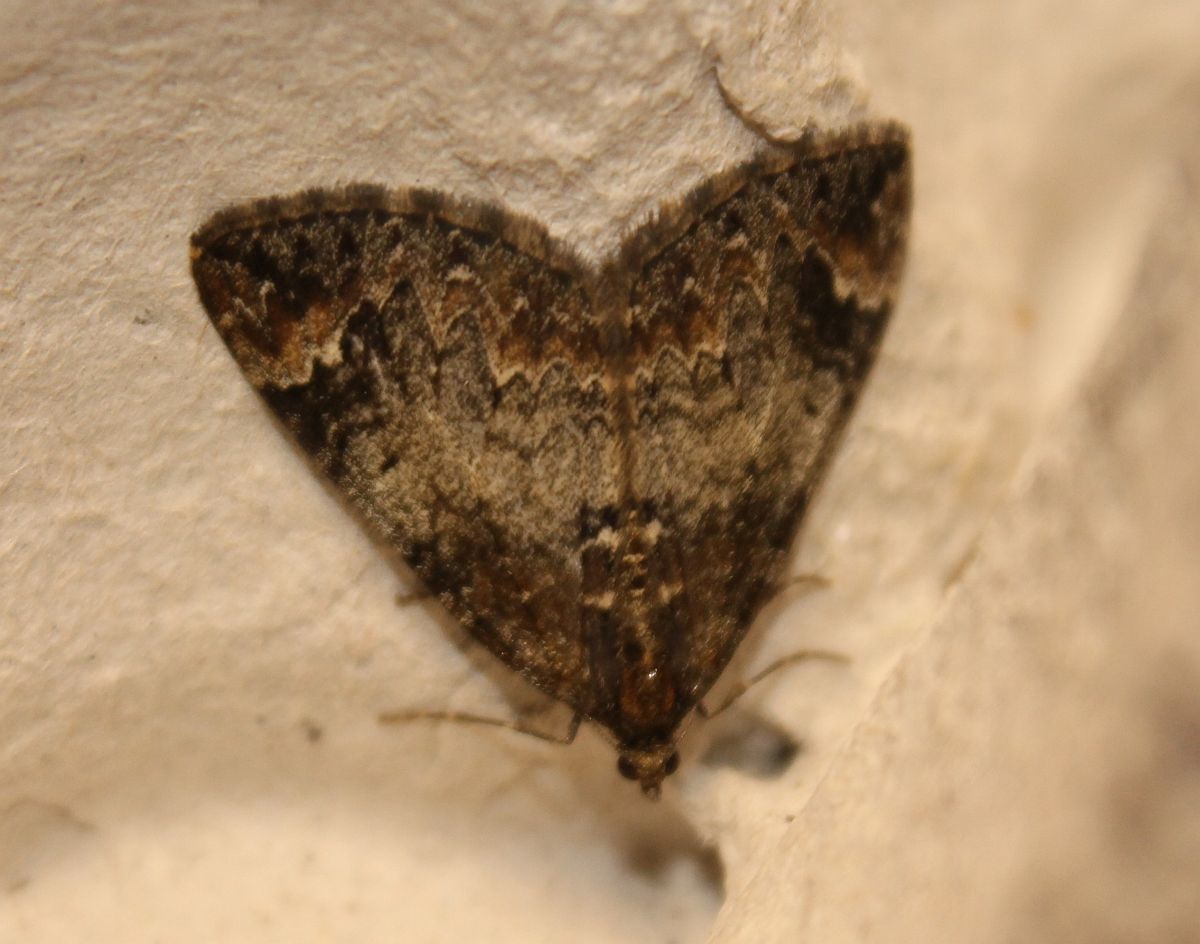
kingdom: Animalia
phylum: Arthropoda
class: Insecta
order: Lepidoptera
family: Geometridae
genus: Dysstroma
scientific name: Dysstroma truncata
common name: Common marbled carpet
